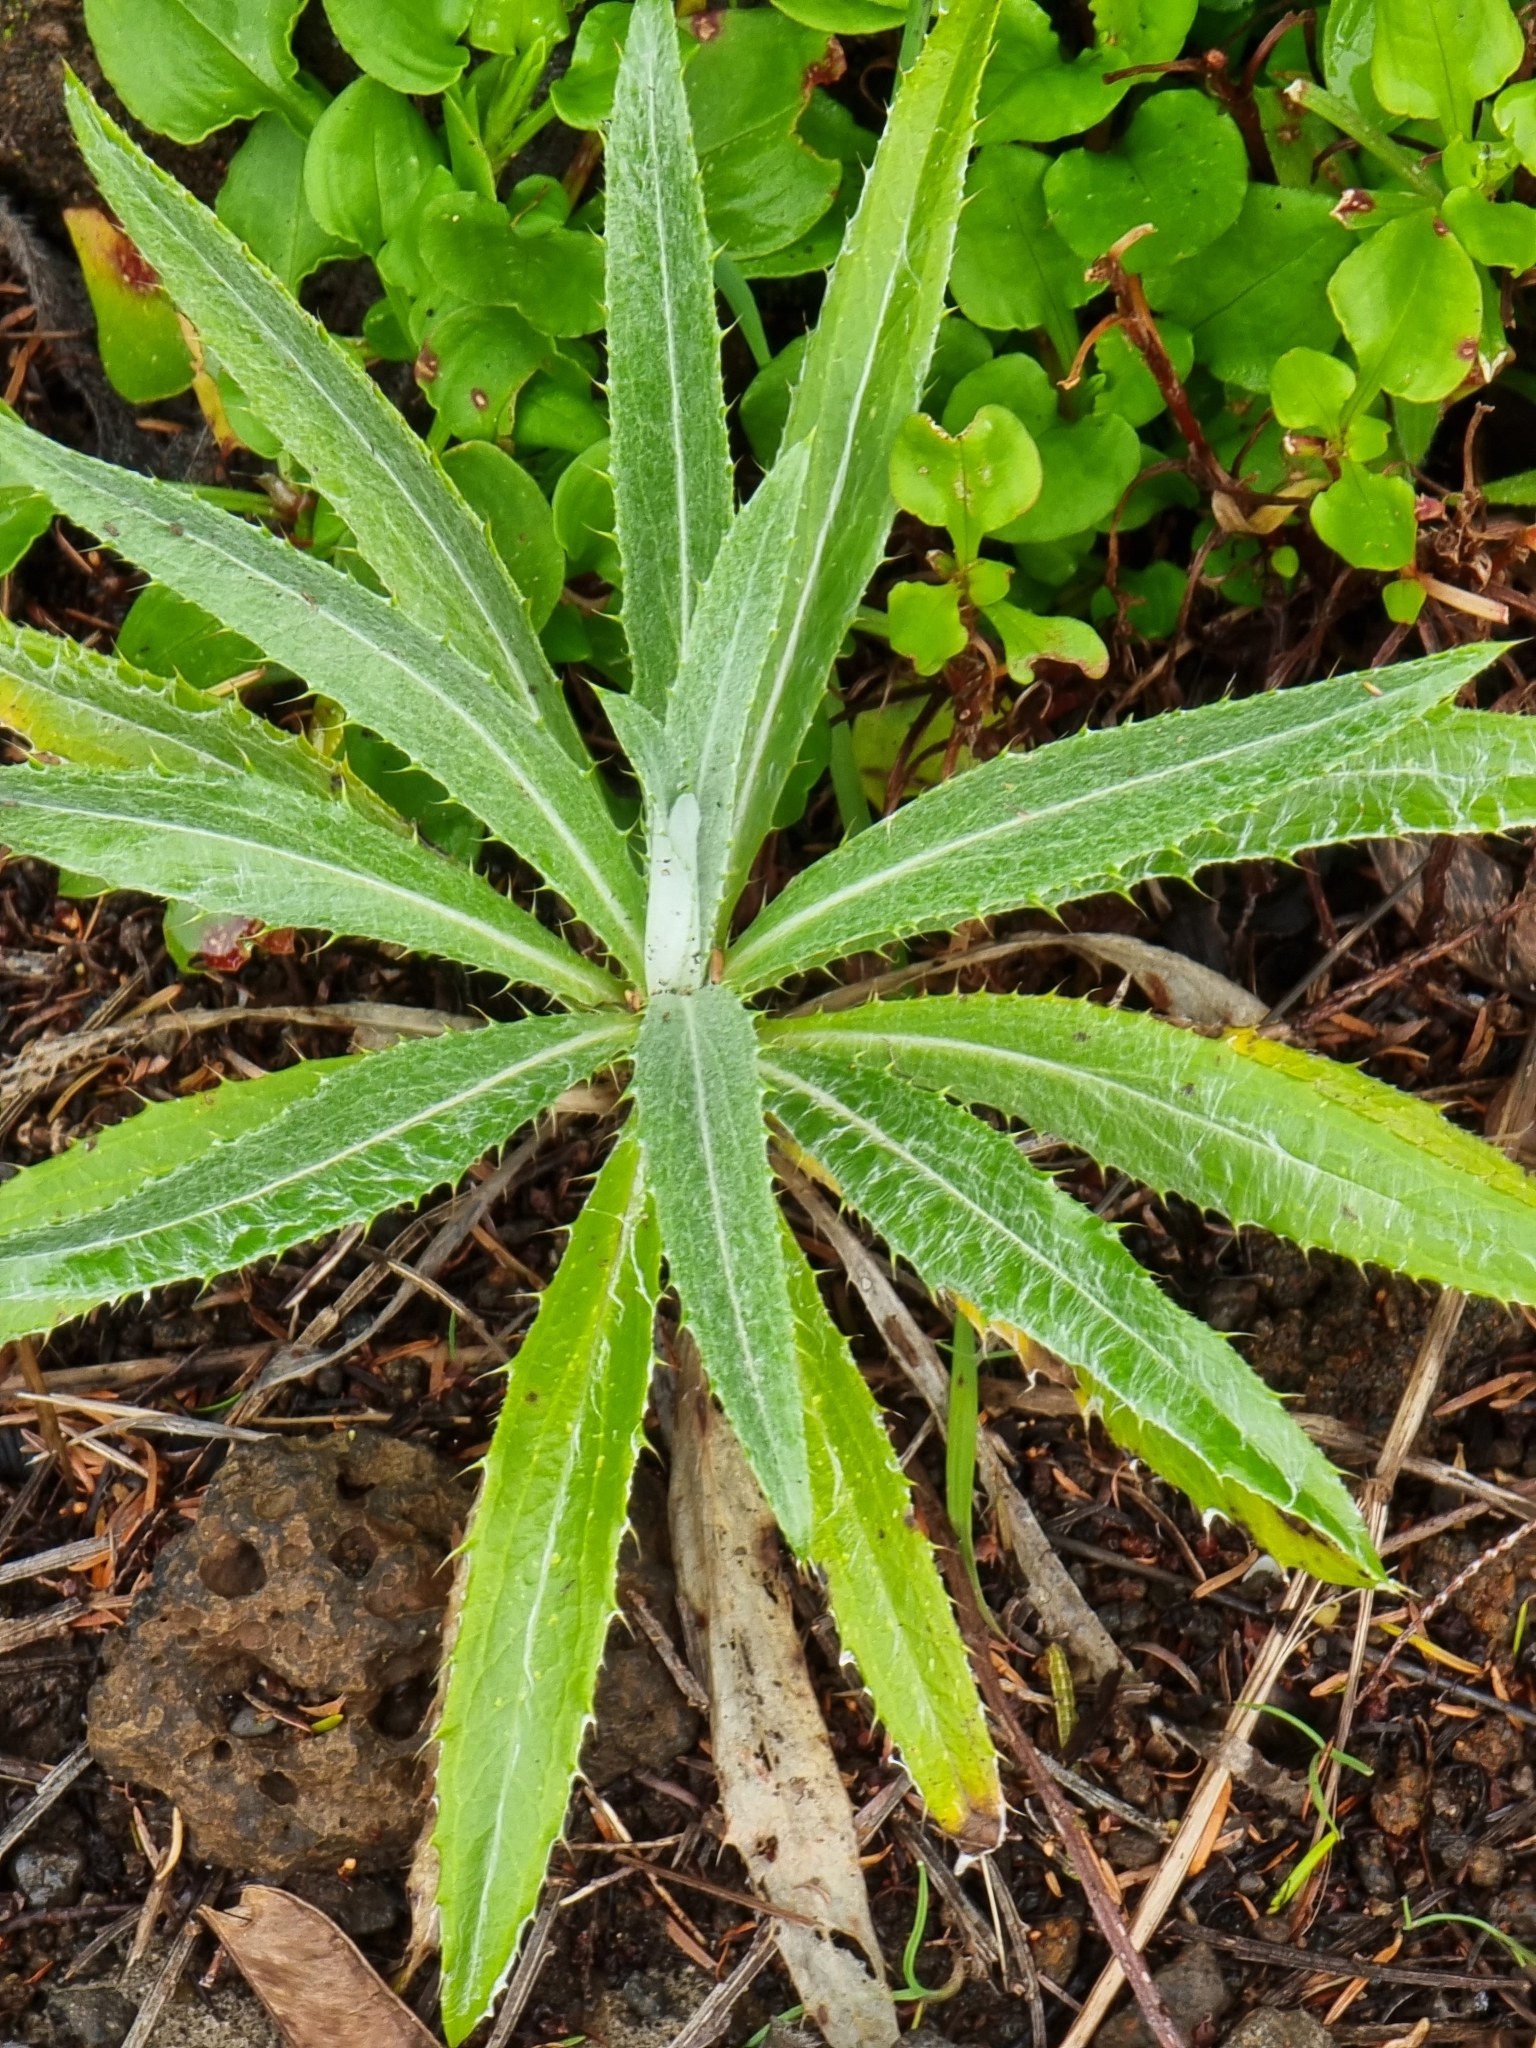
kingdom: Plantae
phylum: Tracheophyta
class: Magnoliopsida
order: Asterales
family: Asteraceae
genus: Carlina
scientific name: Carlina salicifolia
